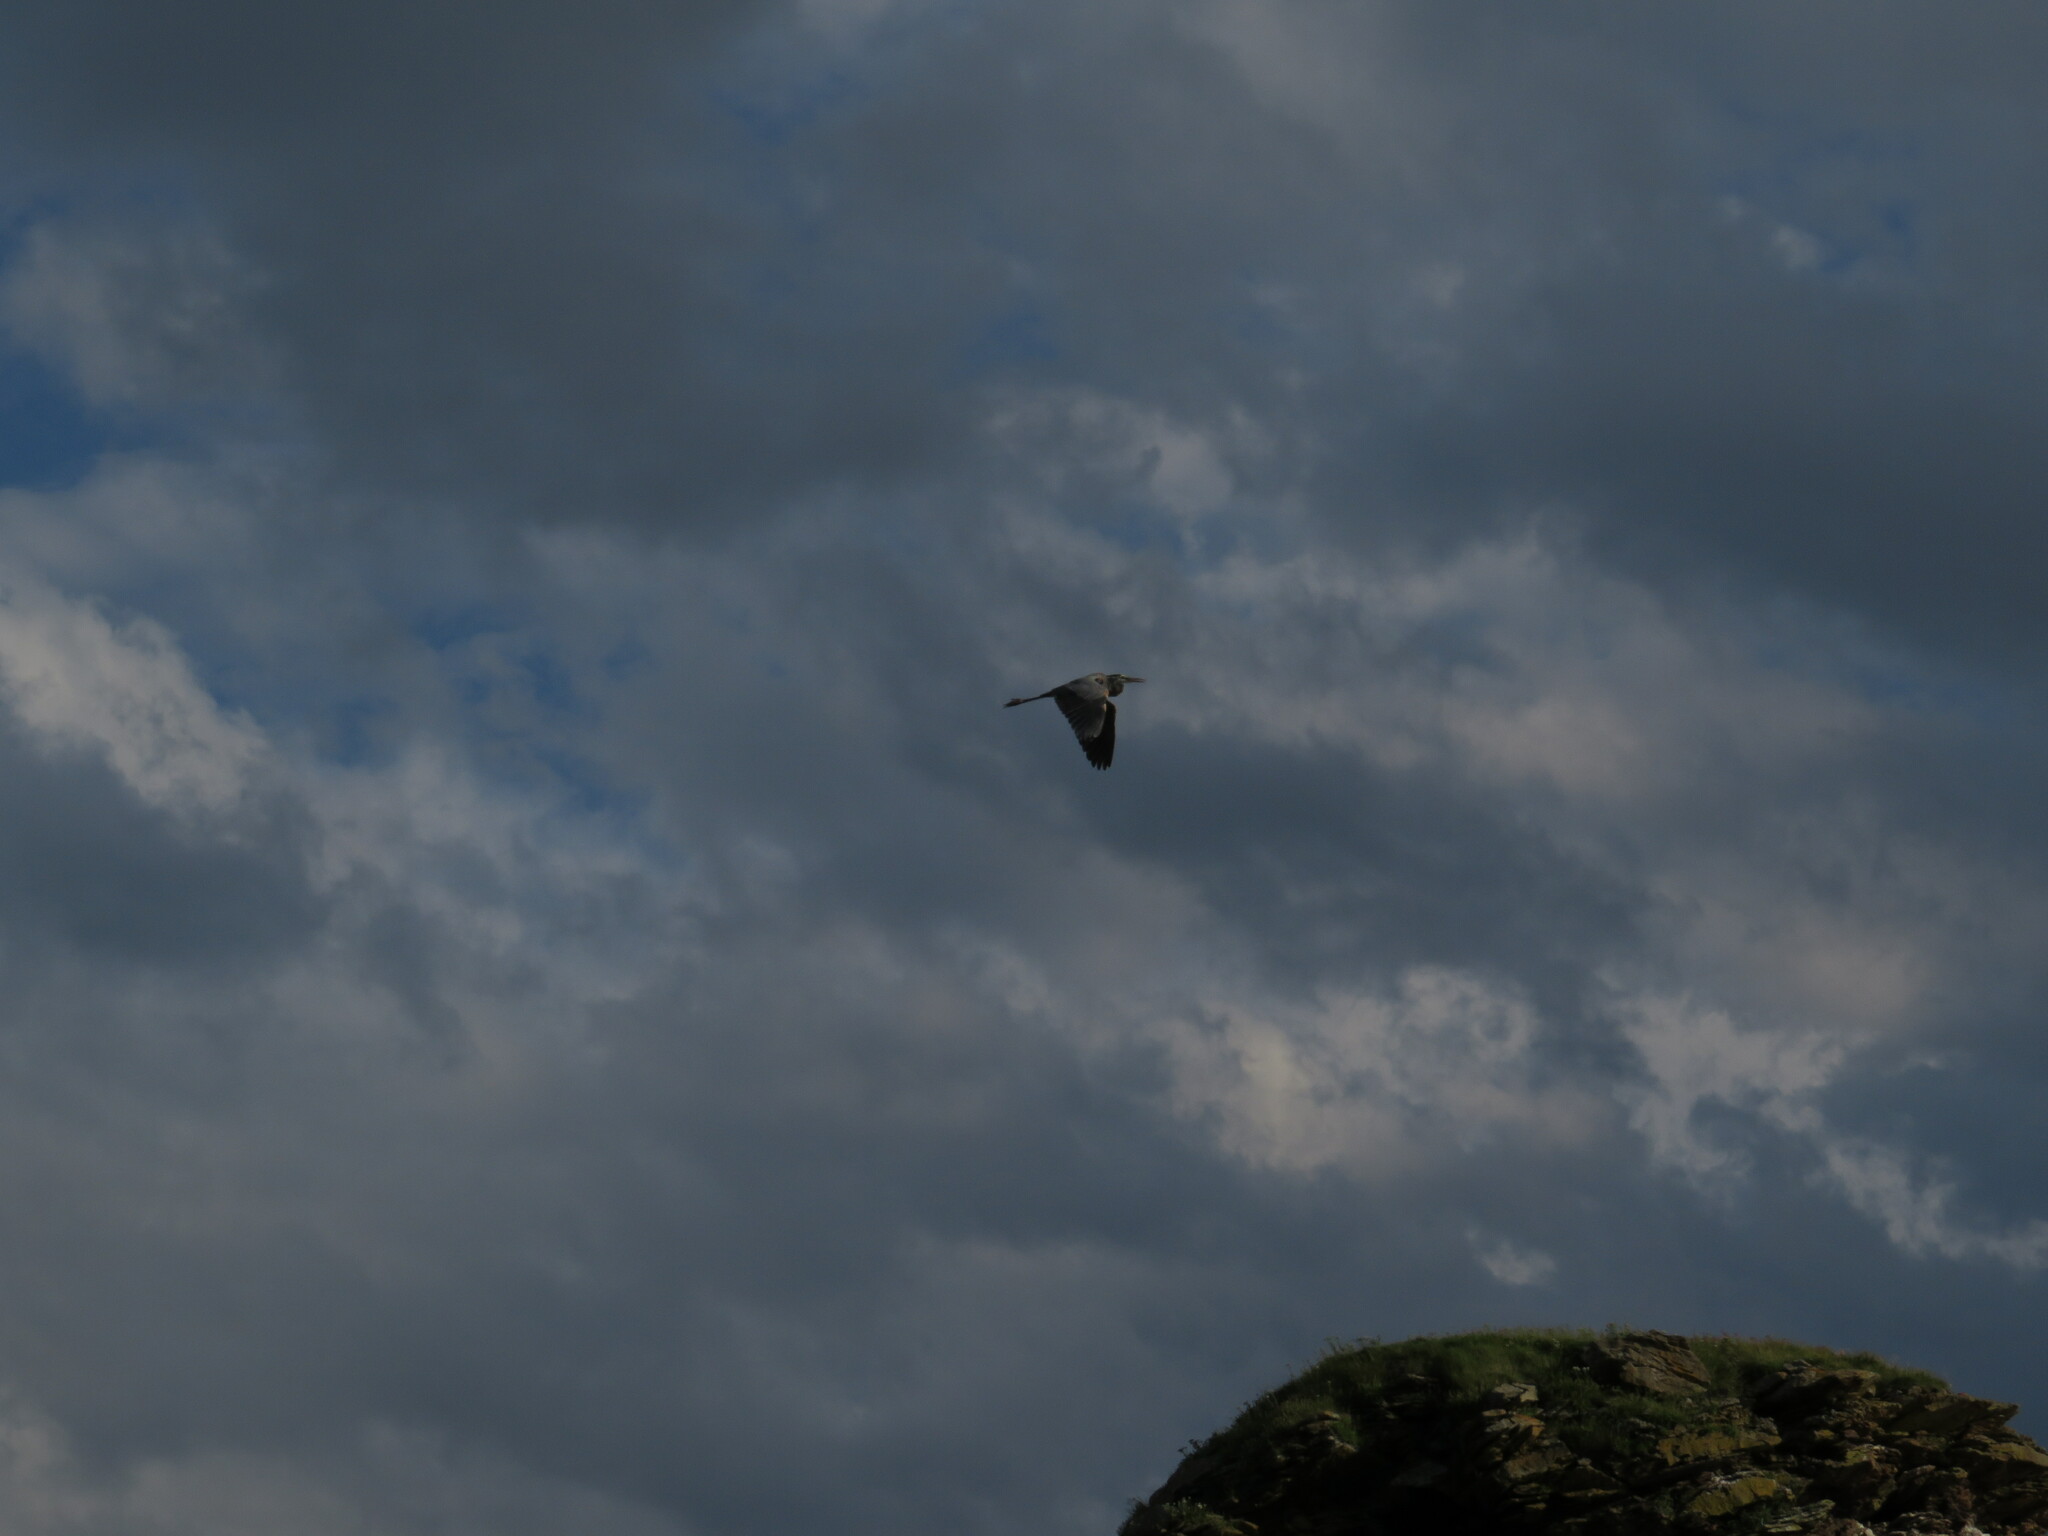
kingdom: Animalia
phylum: Chordata
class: Aves
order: Pelecaniformes
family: Ardeidae
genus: Ardea
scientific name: Ardea herodias
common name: Great blue heron
